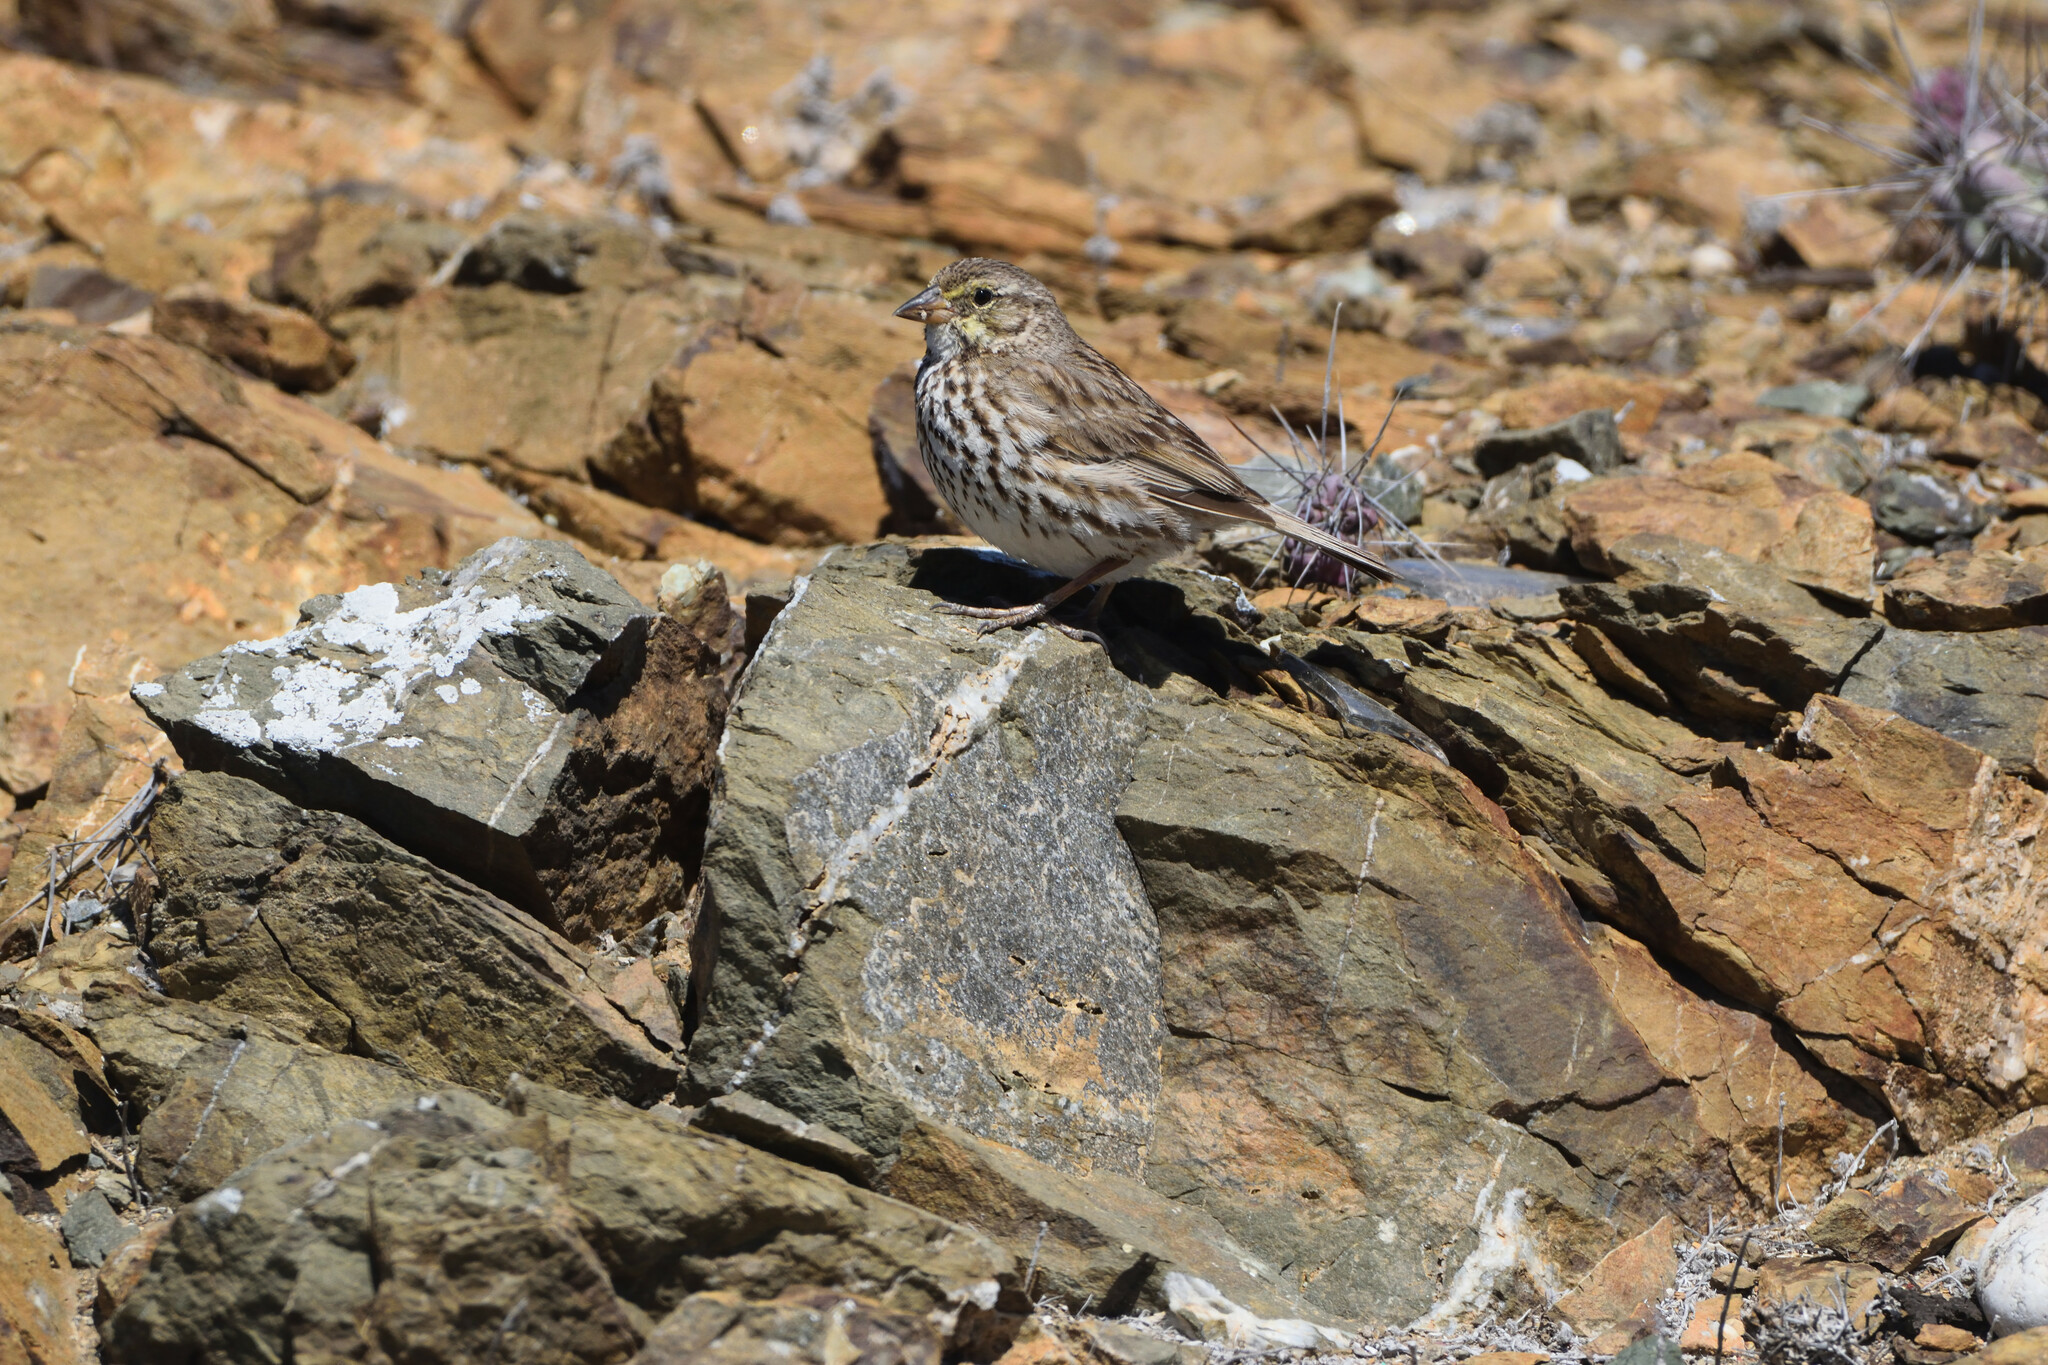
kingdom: Animalia
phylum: Chordata
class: Aves
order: Passeriformes
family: Passerellidae
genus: Passerculus
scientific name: Passerculus sandwichensis
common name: Savannah sparrow
